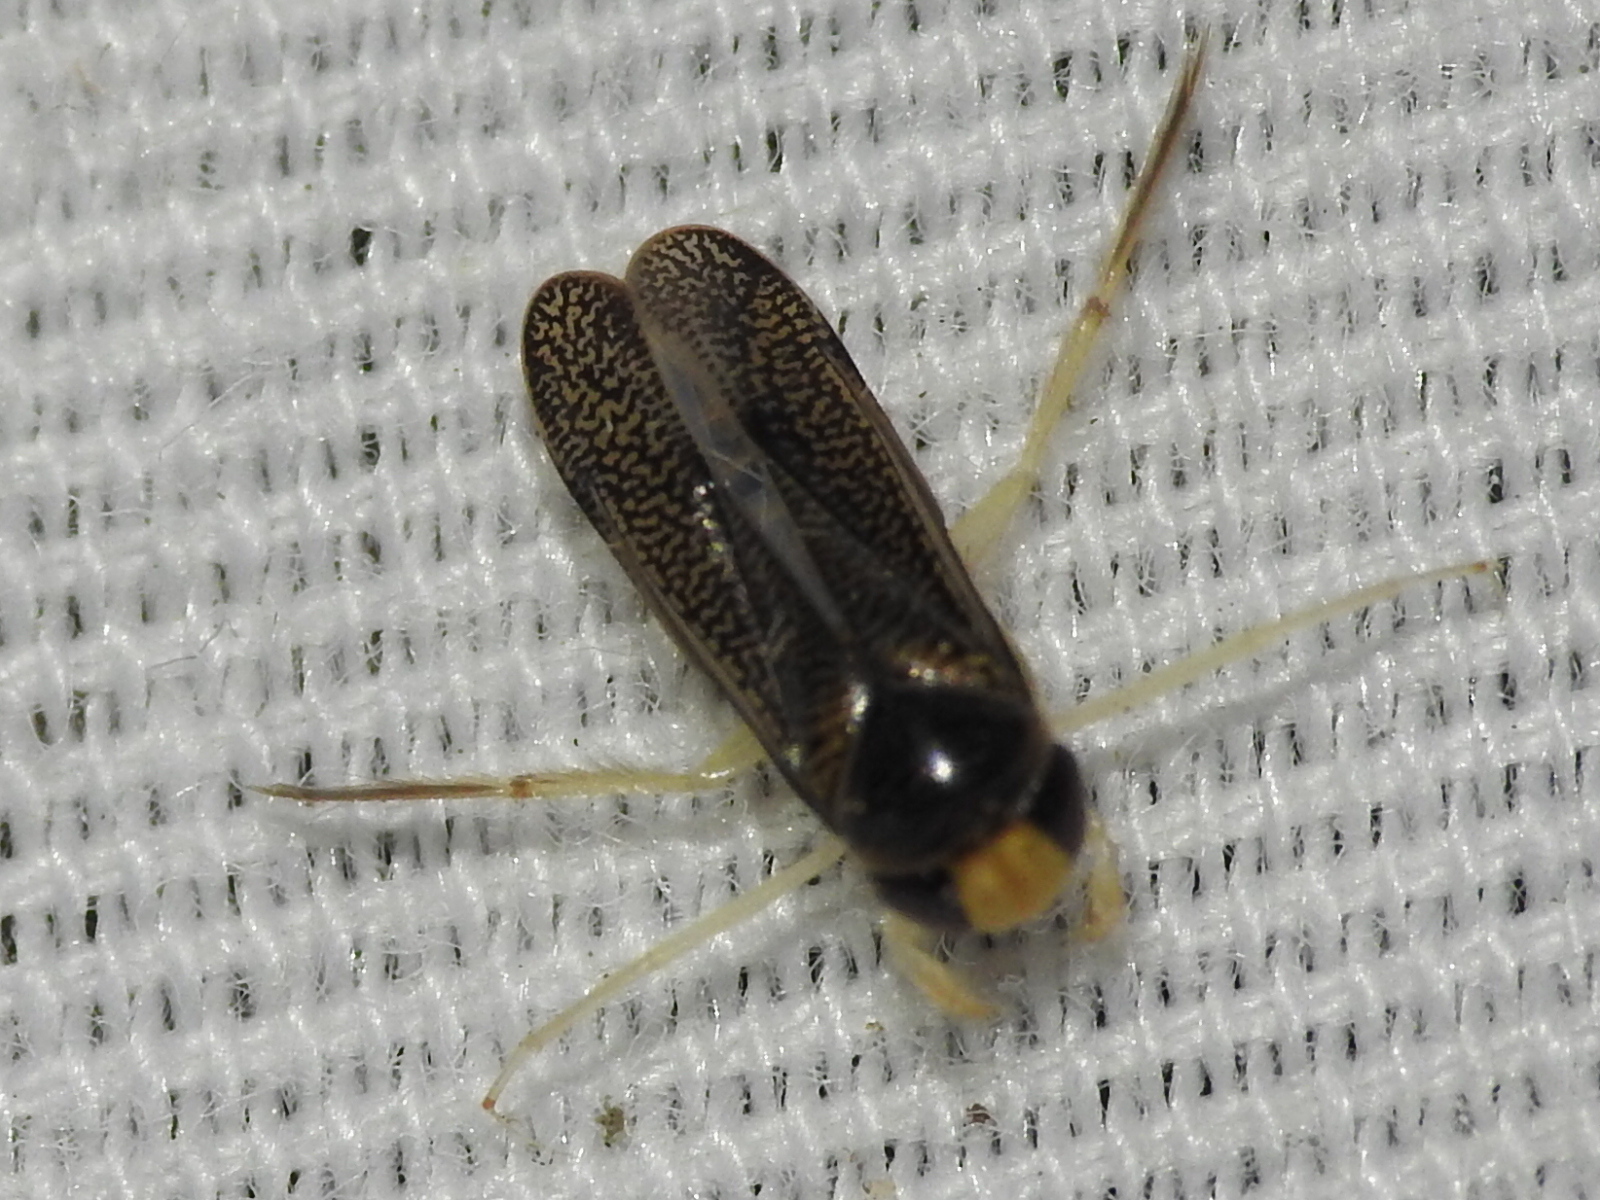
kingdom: Animalia
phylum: Arthropoda
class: Insecta
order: Hemiptera
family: Corixidae
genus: Trichocorixa
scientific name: Trichocorixa
